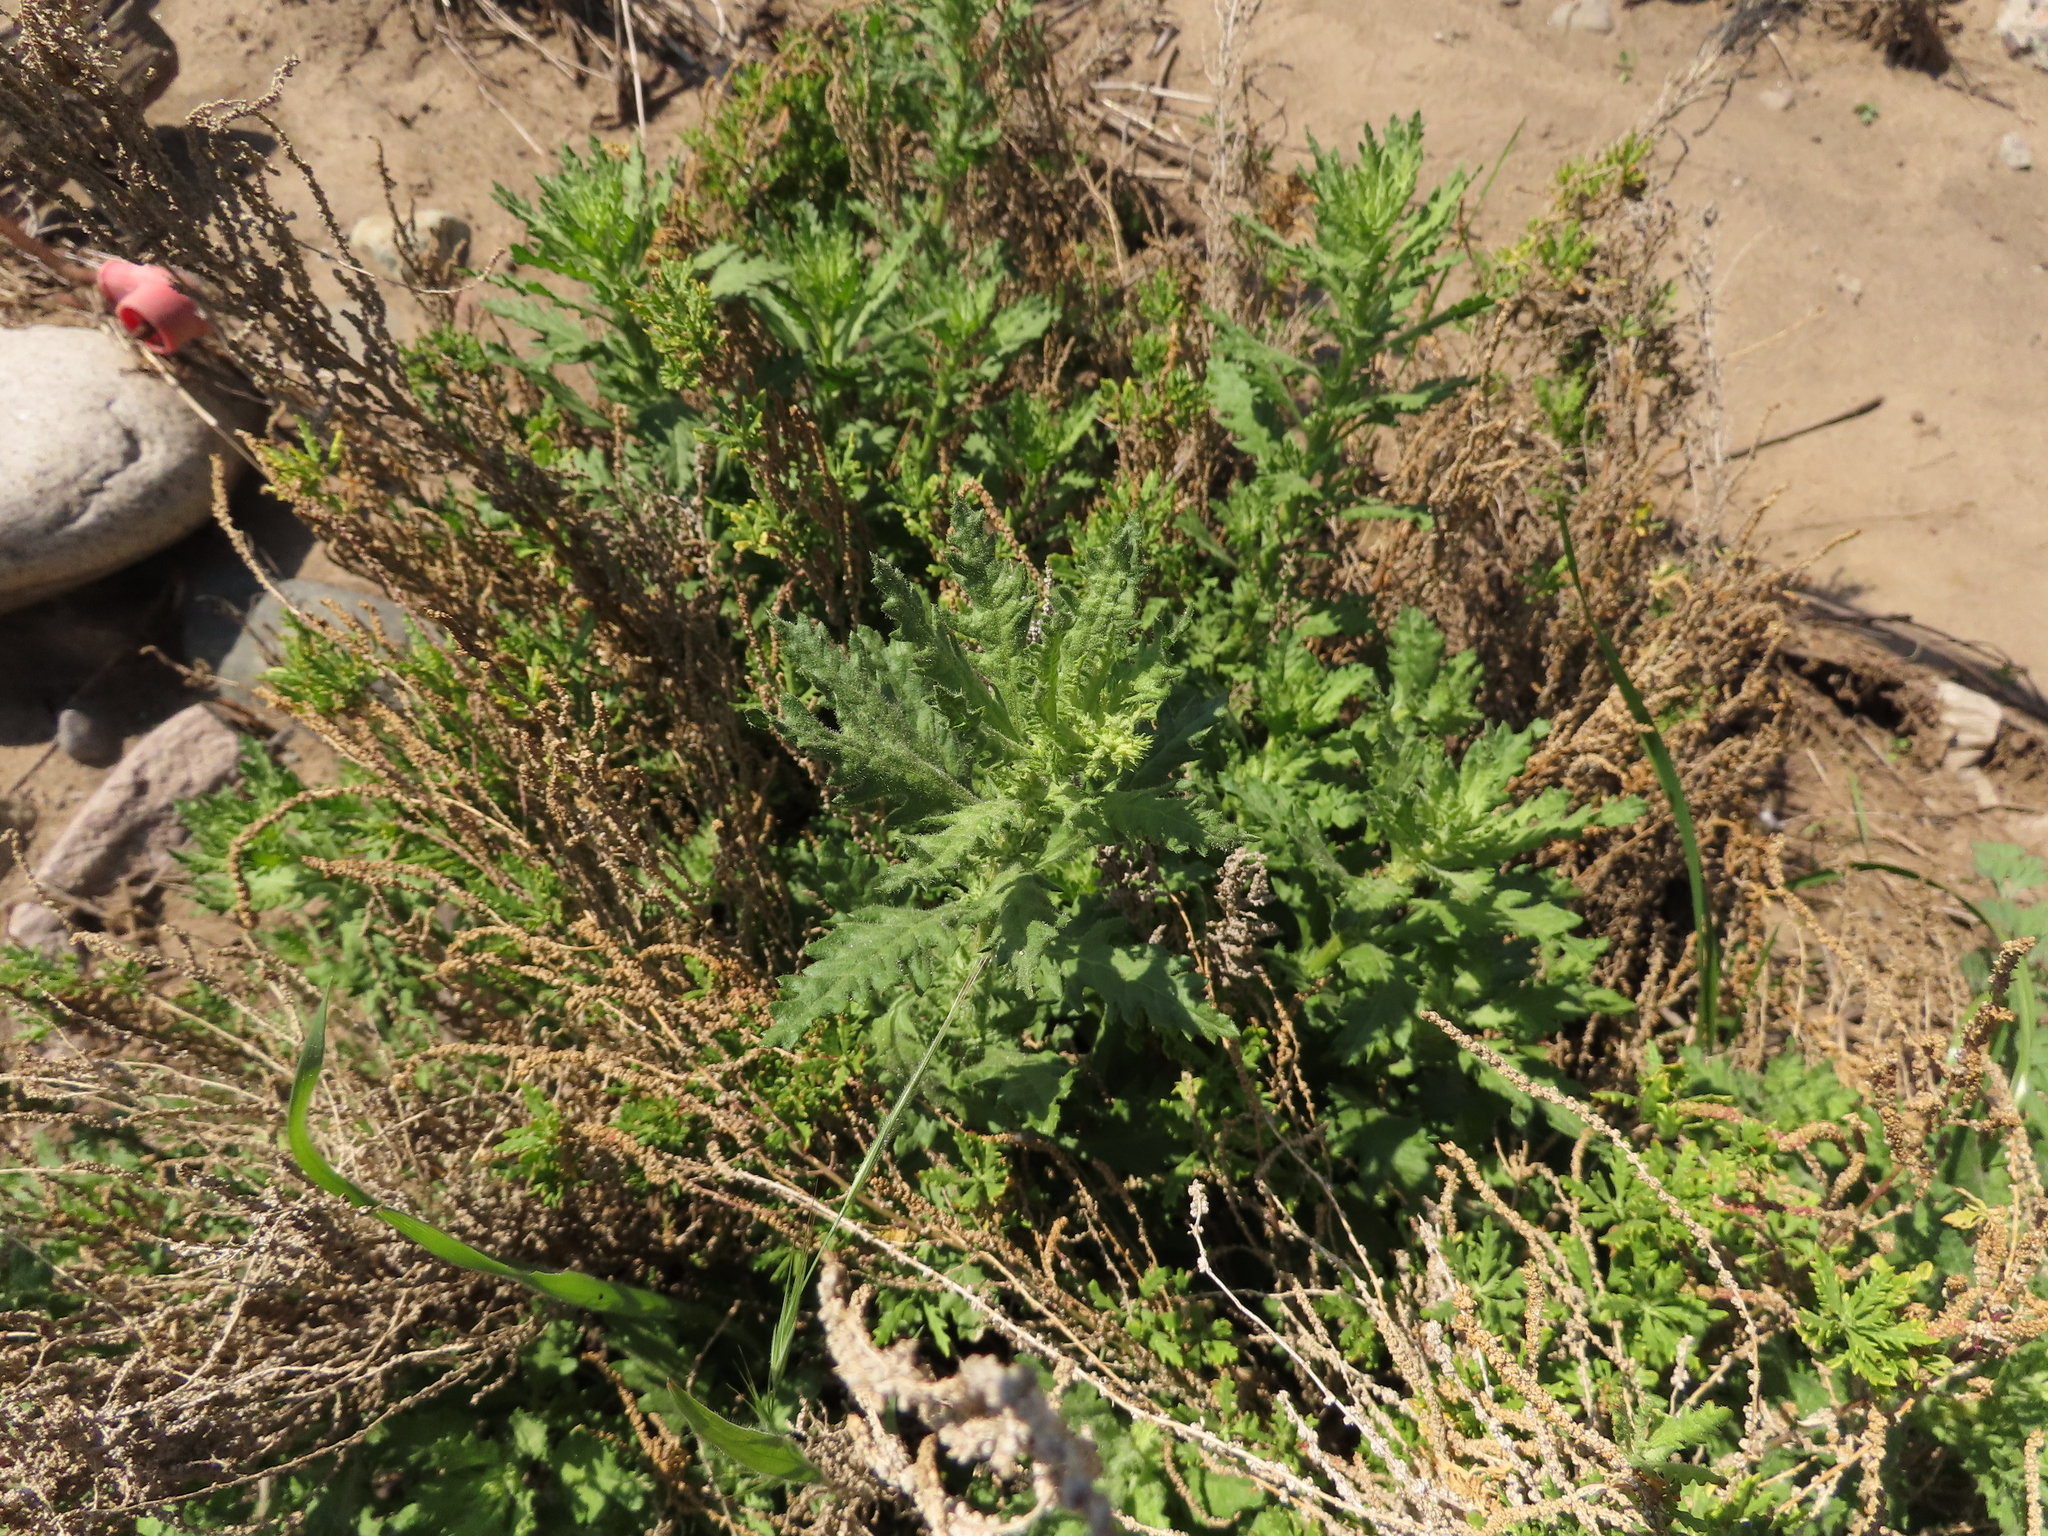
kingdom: Plantae
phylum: Tracheophyta
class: Magnoliopsida
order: Caryophyllales
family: Amaranthaceae
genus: Dysphania
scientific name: Dysphania ambrosioides
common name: Wormseed
